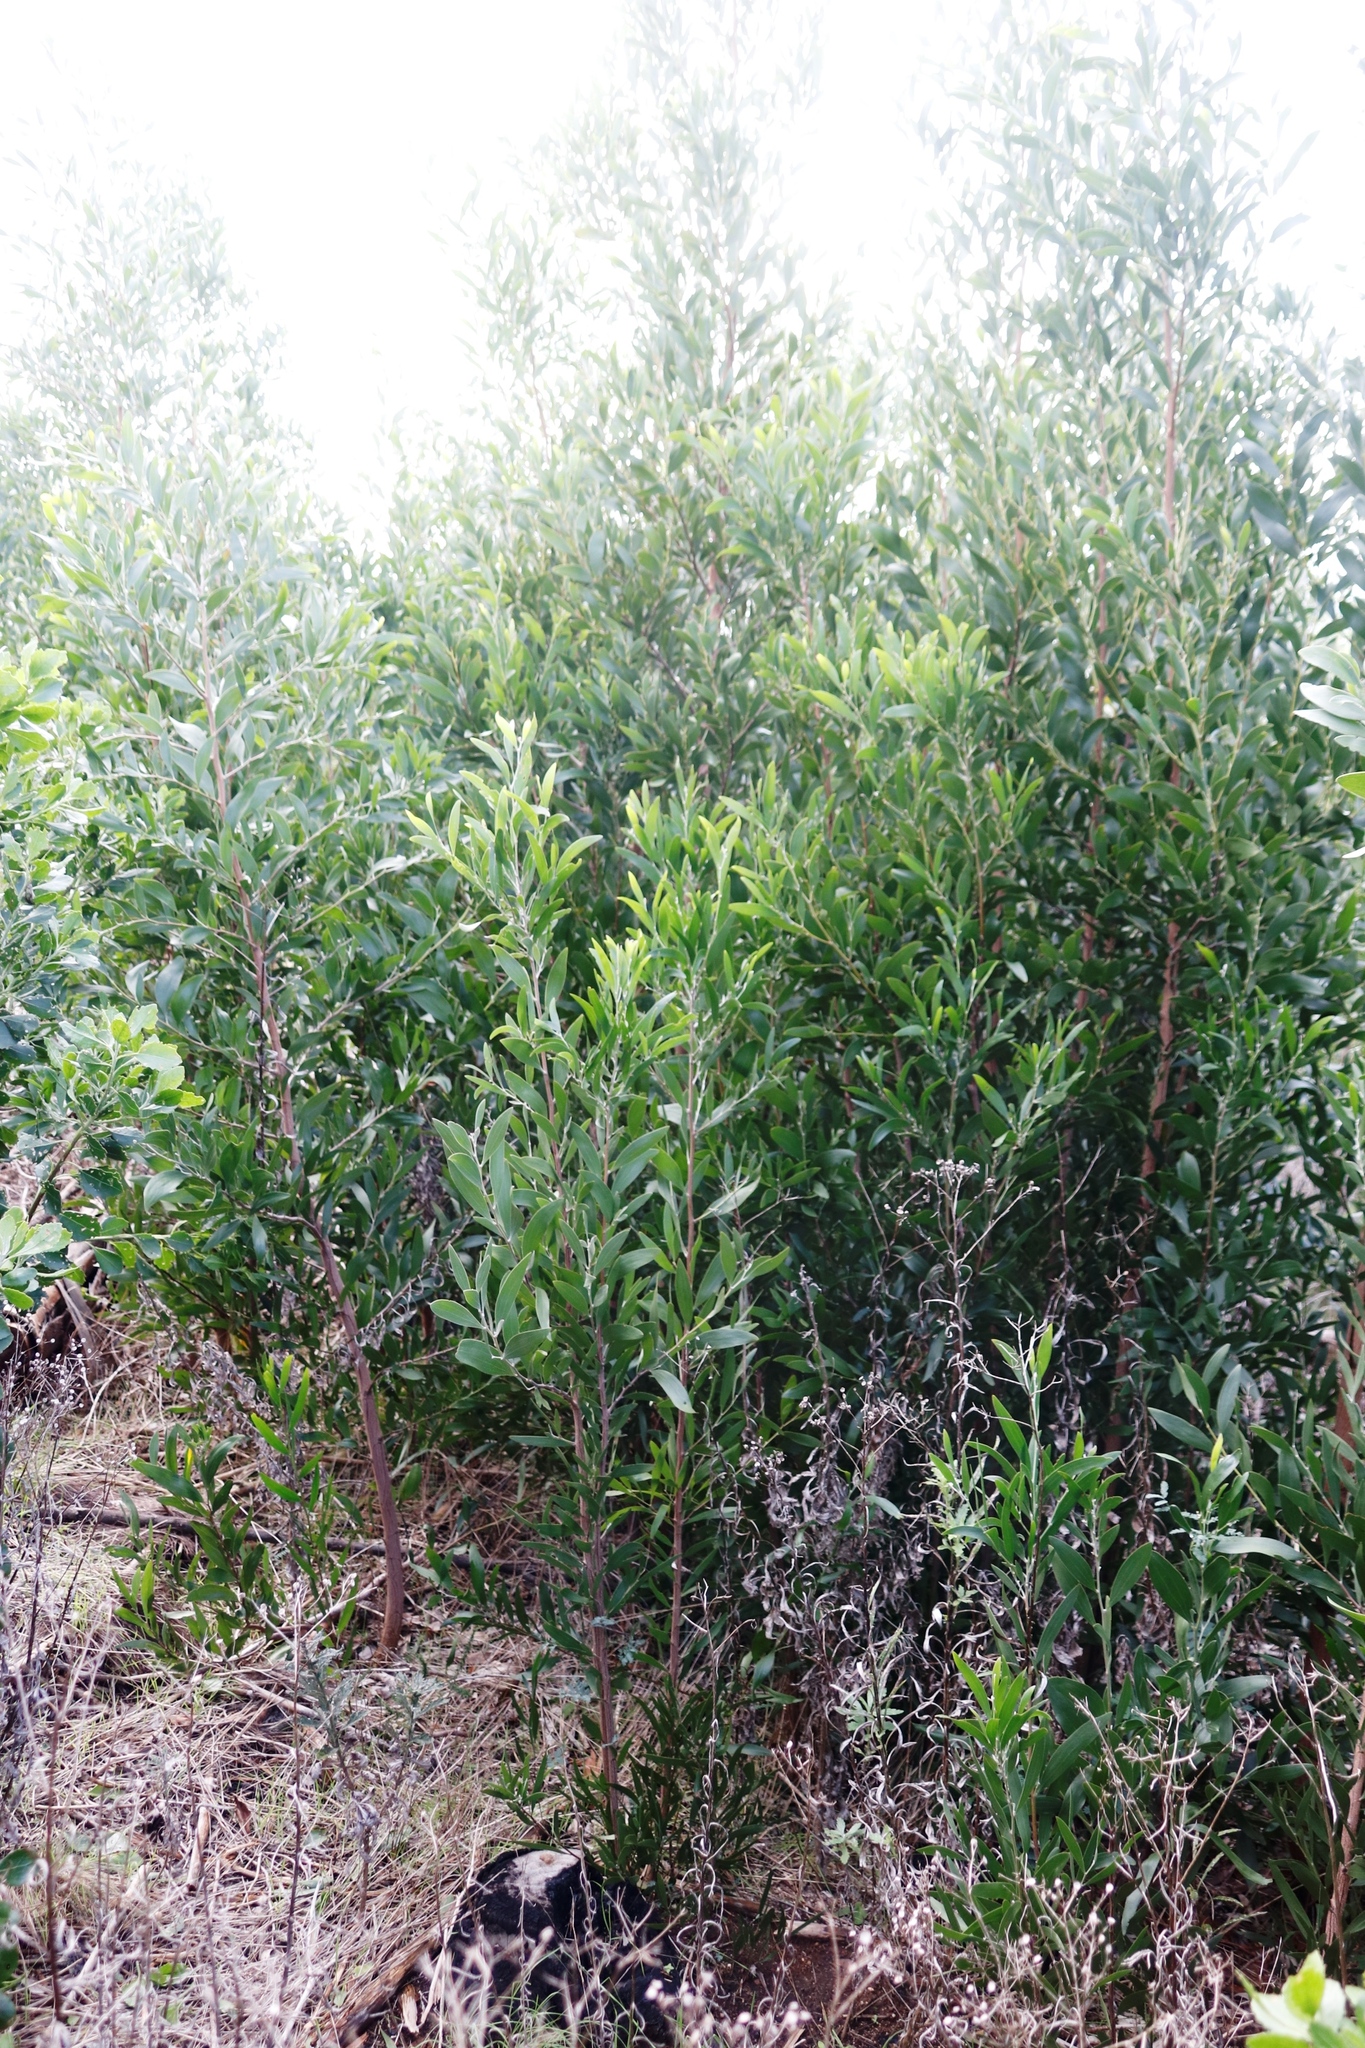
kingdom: Plantae
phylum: Tracheophyta
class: Magnoliopsida
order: Fabales
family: Fabaceae
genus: Acacia
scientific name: Acacia melanoxylon
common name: Blackwood
